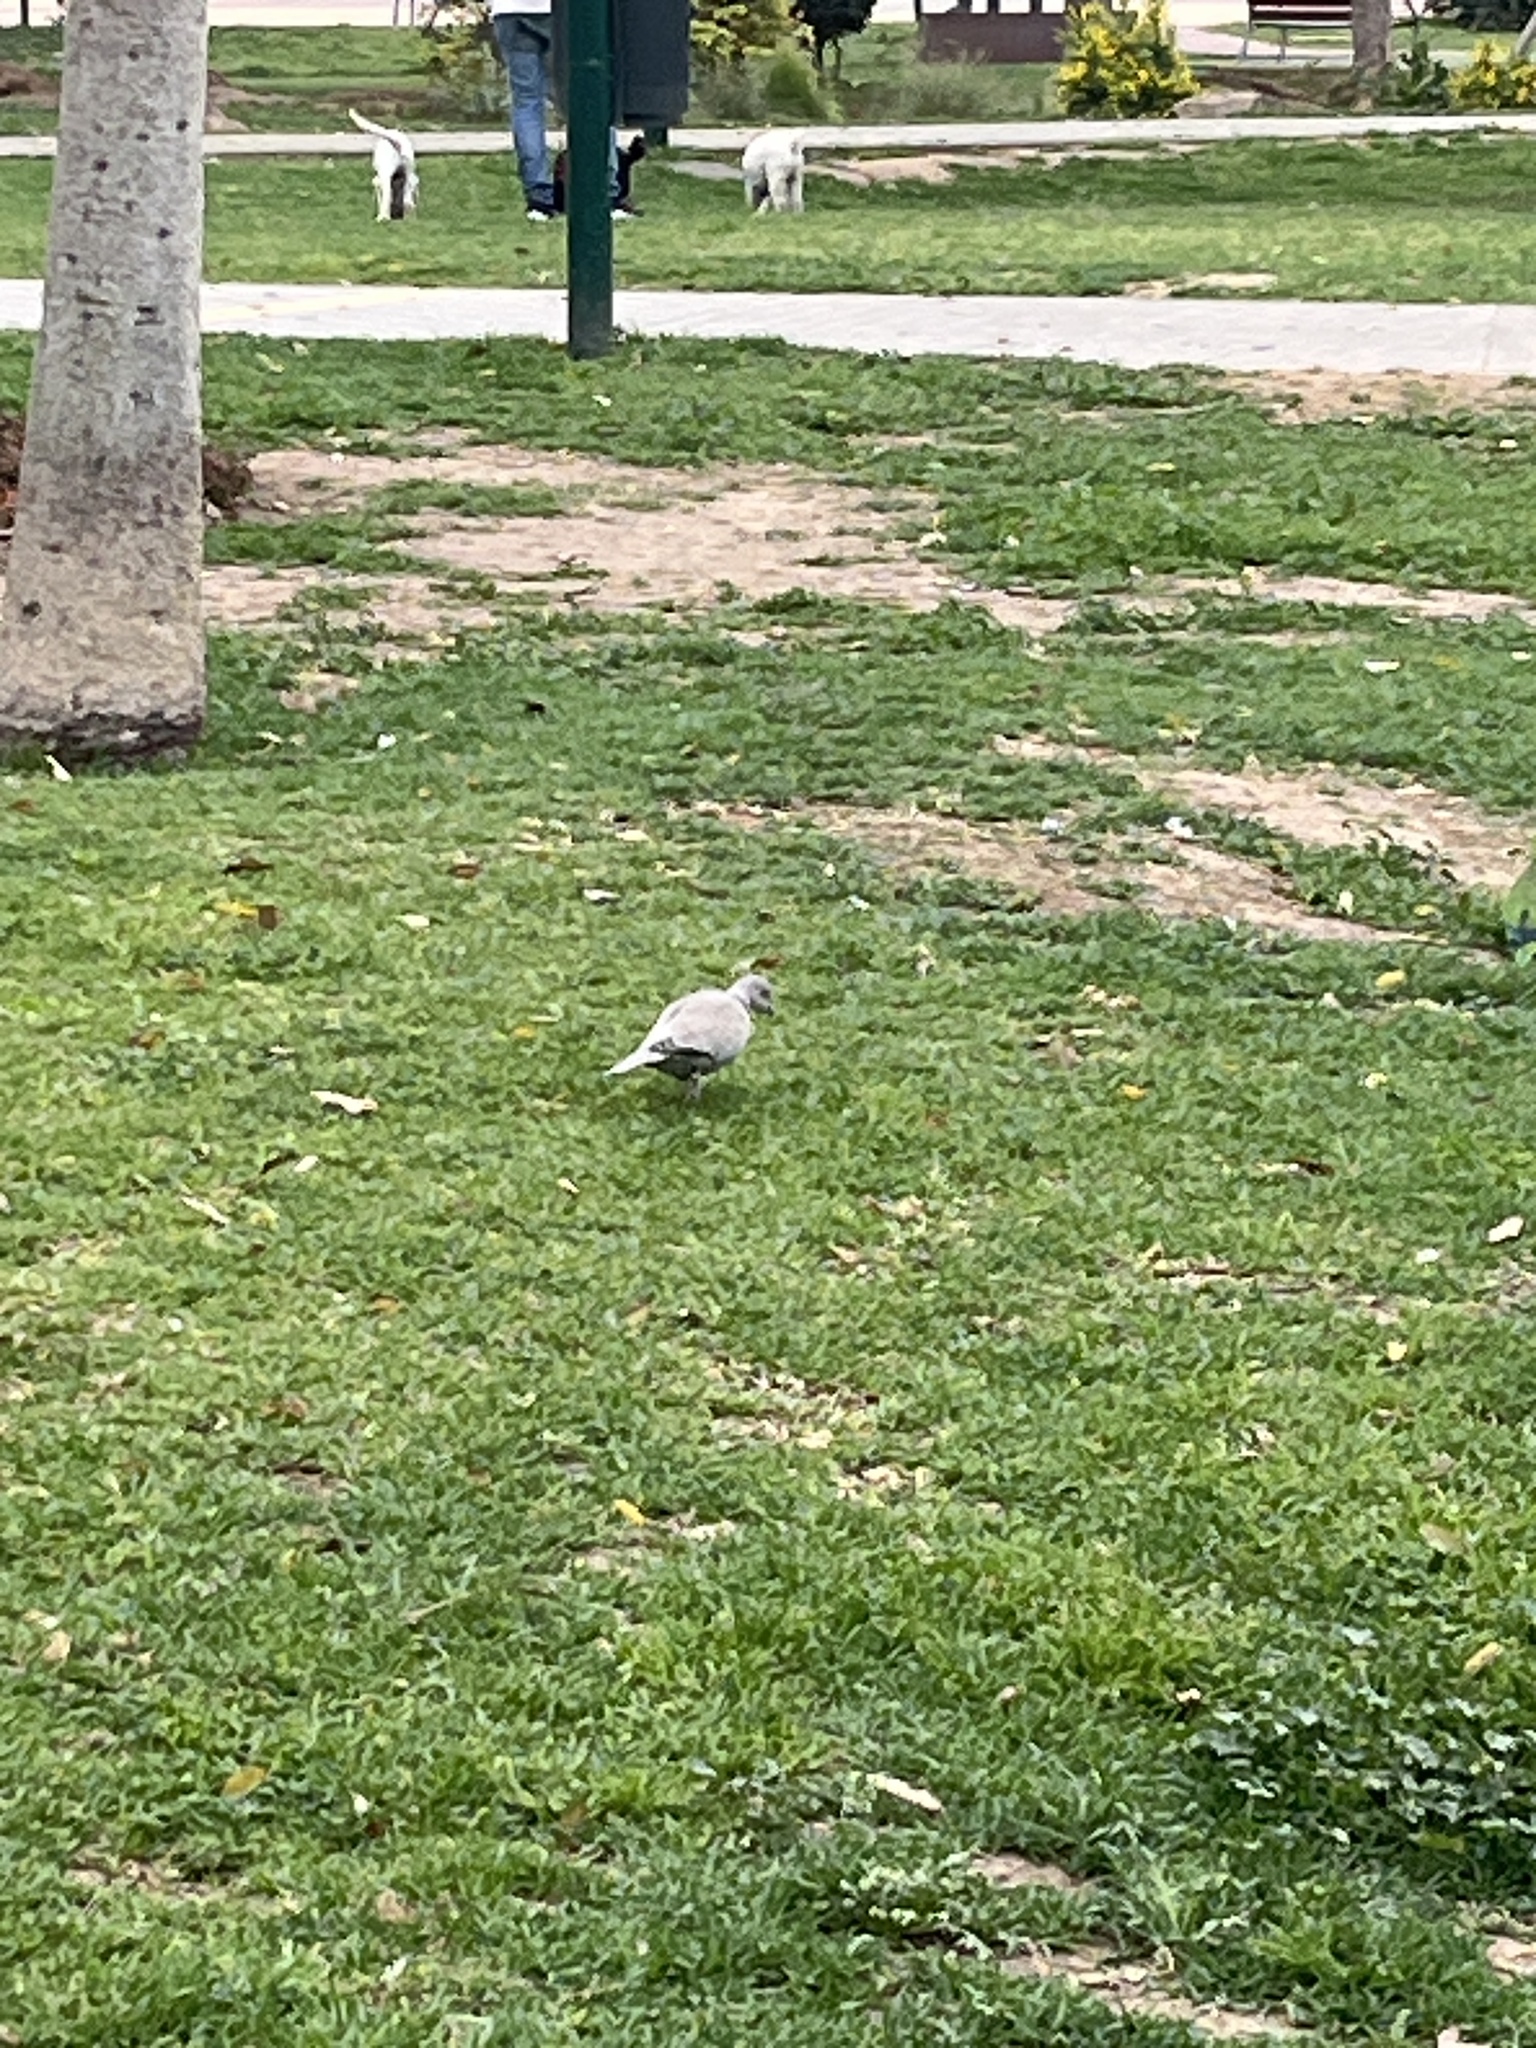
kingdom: Animalia
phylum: Chordata
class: Aves
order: Columbiformes
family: Columbidae
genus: Streptopelia
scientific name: Streptopelia decaocto
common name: Eurasian collared dove
